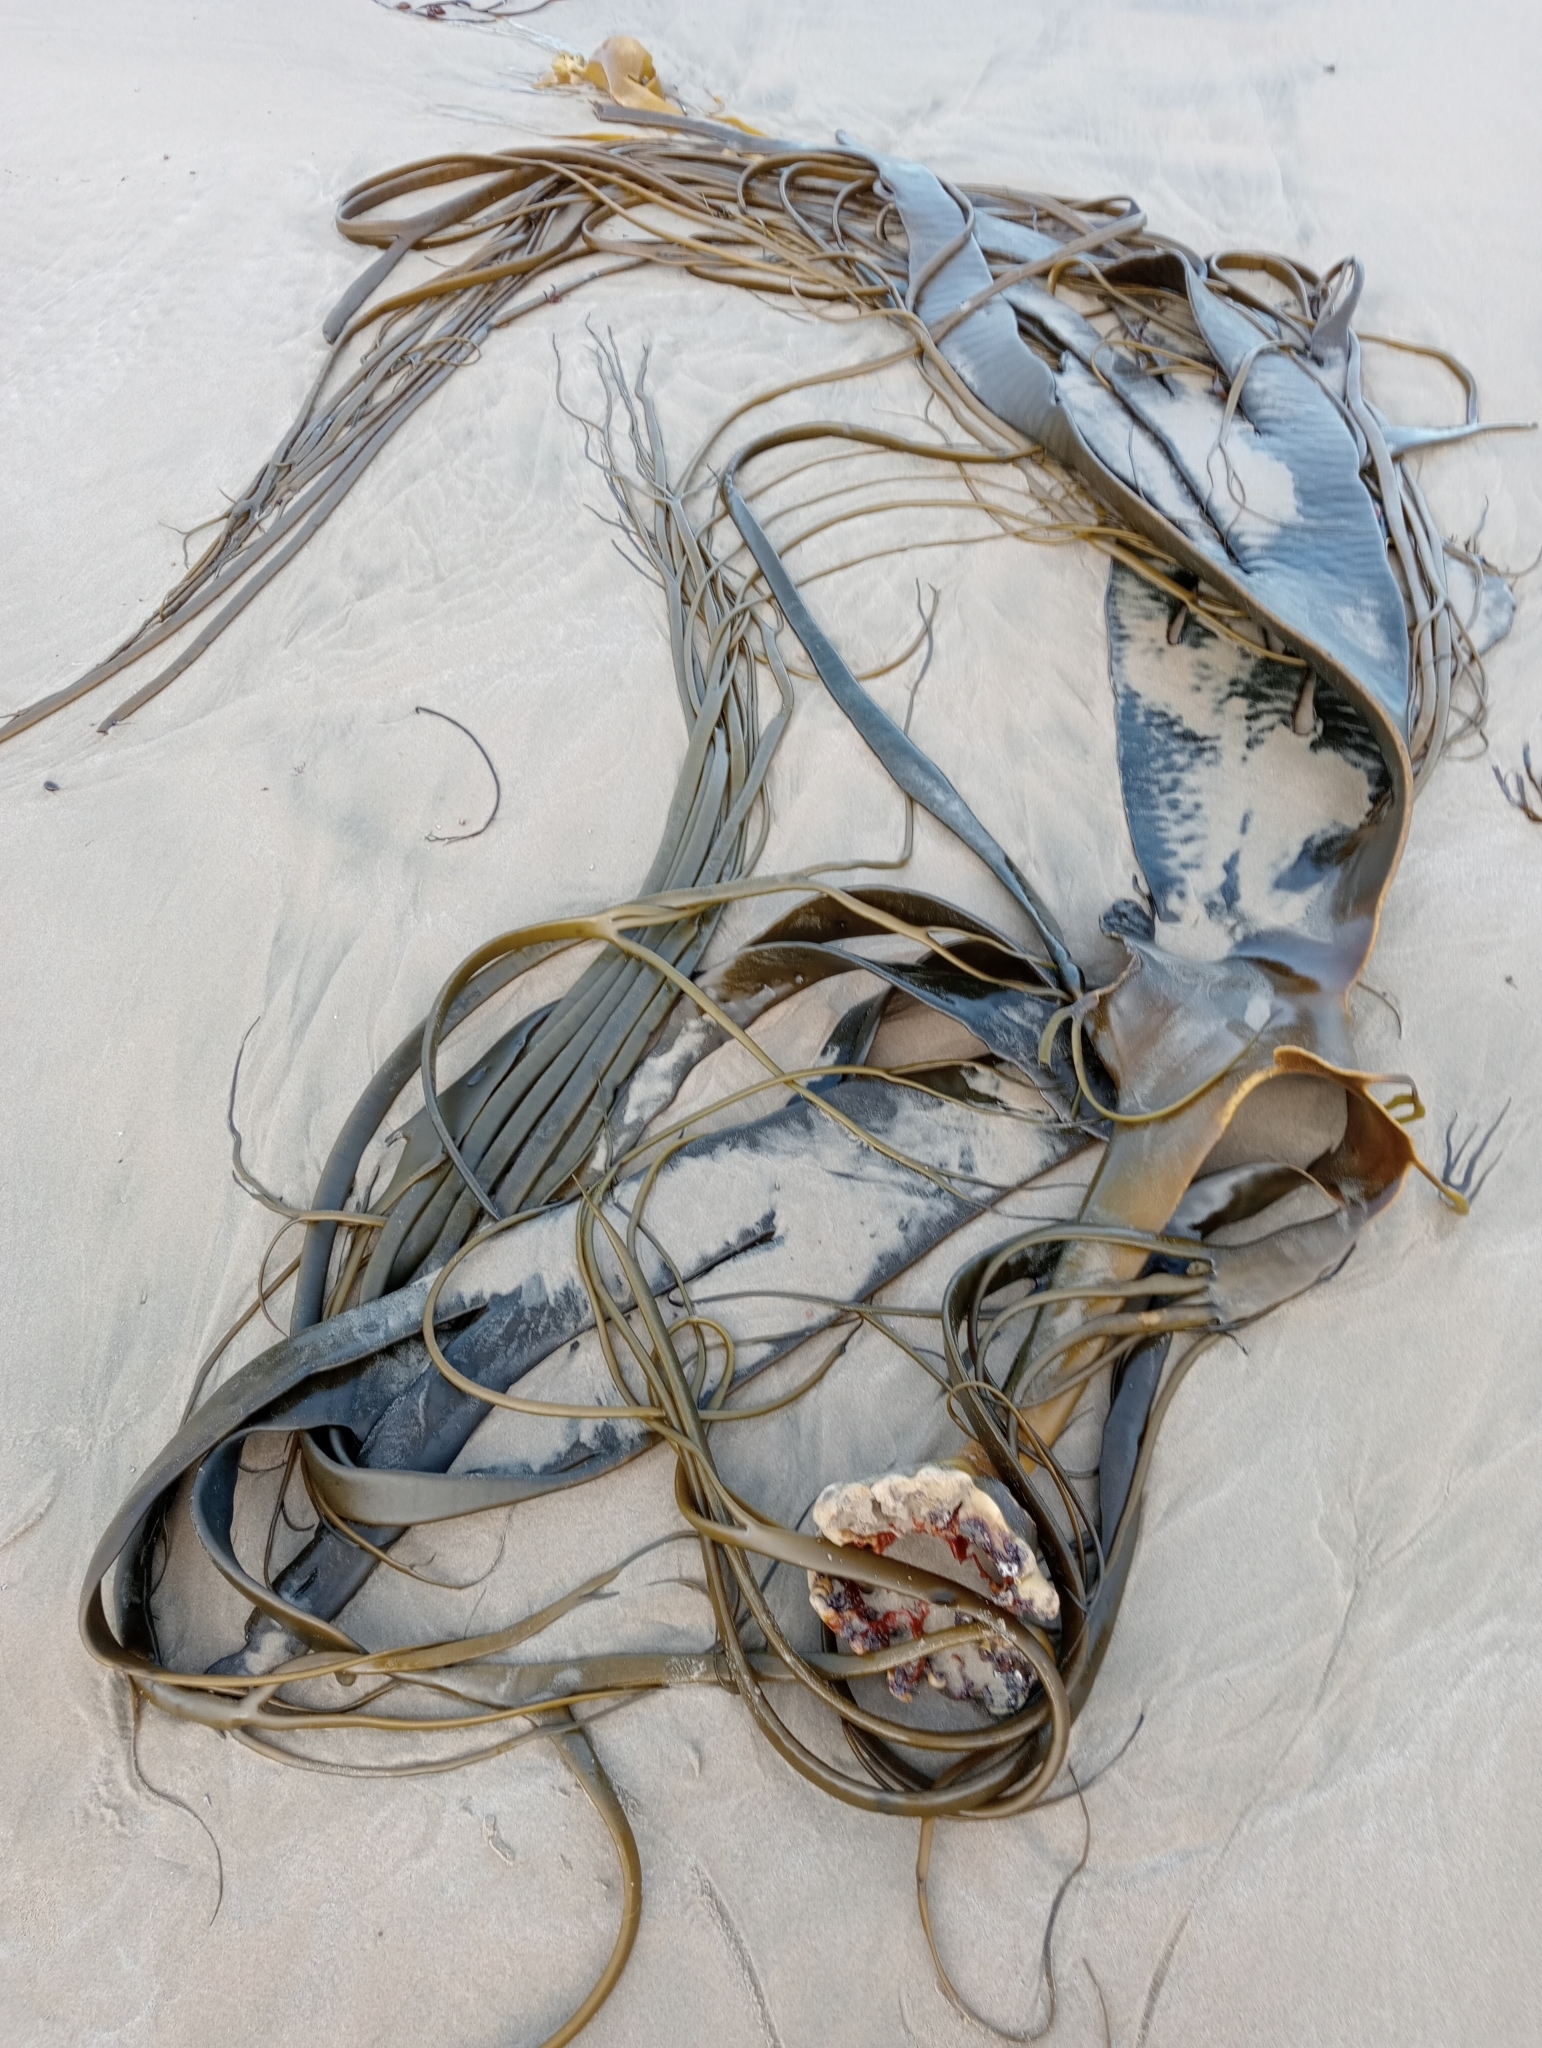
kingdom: Chromista
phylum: Ochrophyta
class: Phaeophyceae
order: Fucales
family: Durvillaeaceae
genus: Durvillaea
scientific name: Durvillaea antarctica
